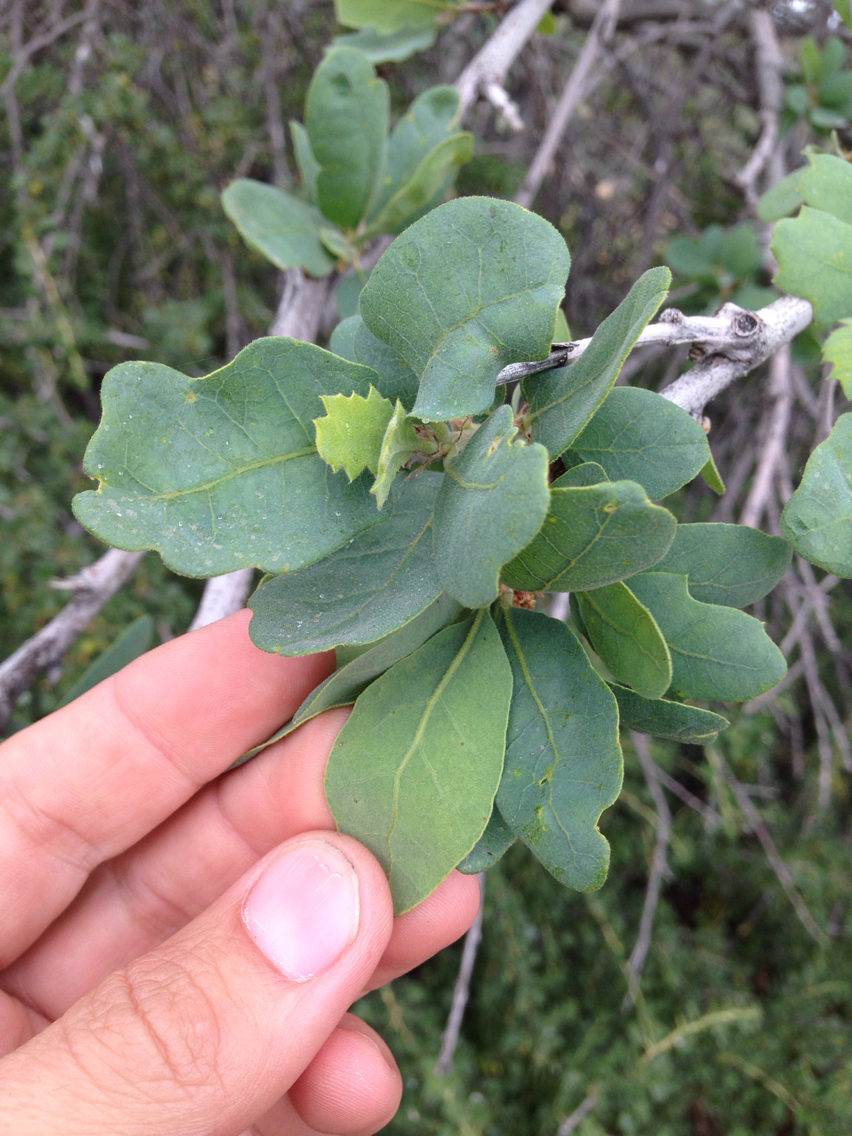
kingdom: Plantae
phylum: Tracheophyta
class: Magnoliopsida
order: Fagales
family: Fagaceae
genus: Quercus
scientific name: Quercus douglasii
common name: Blue oak
